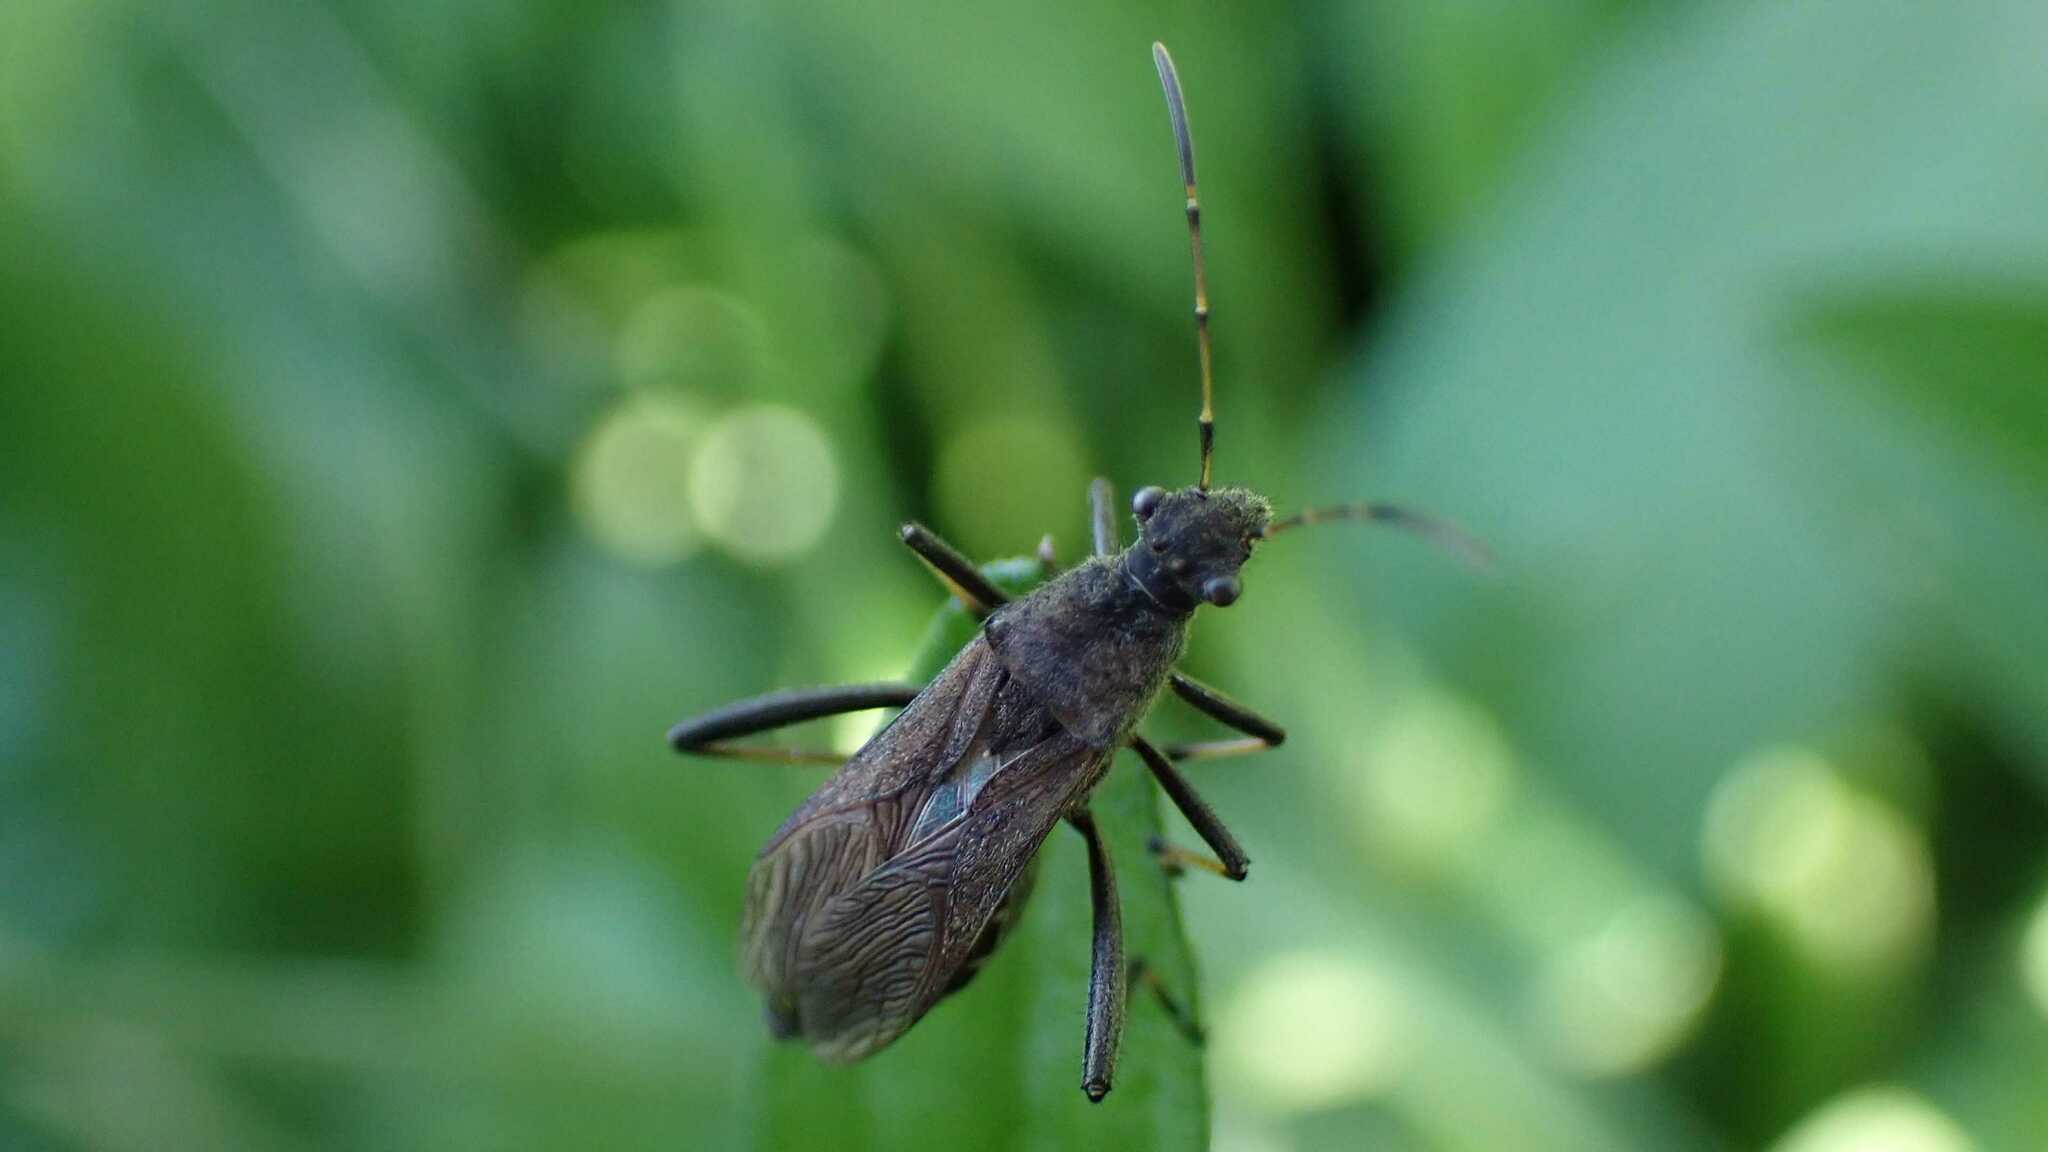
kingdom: Animalia
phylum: Arthropoda
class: Insecta
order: Hemiptera
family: Alydidae
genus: Alydus
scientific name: Alydus calcaratus
